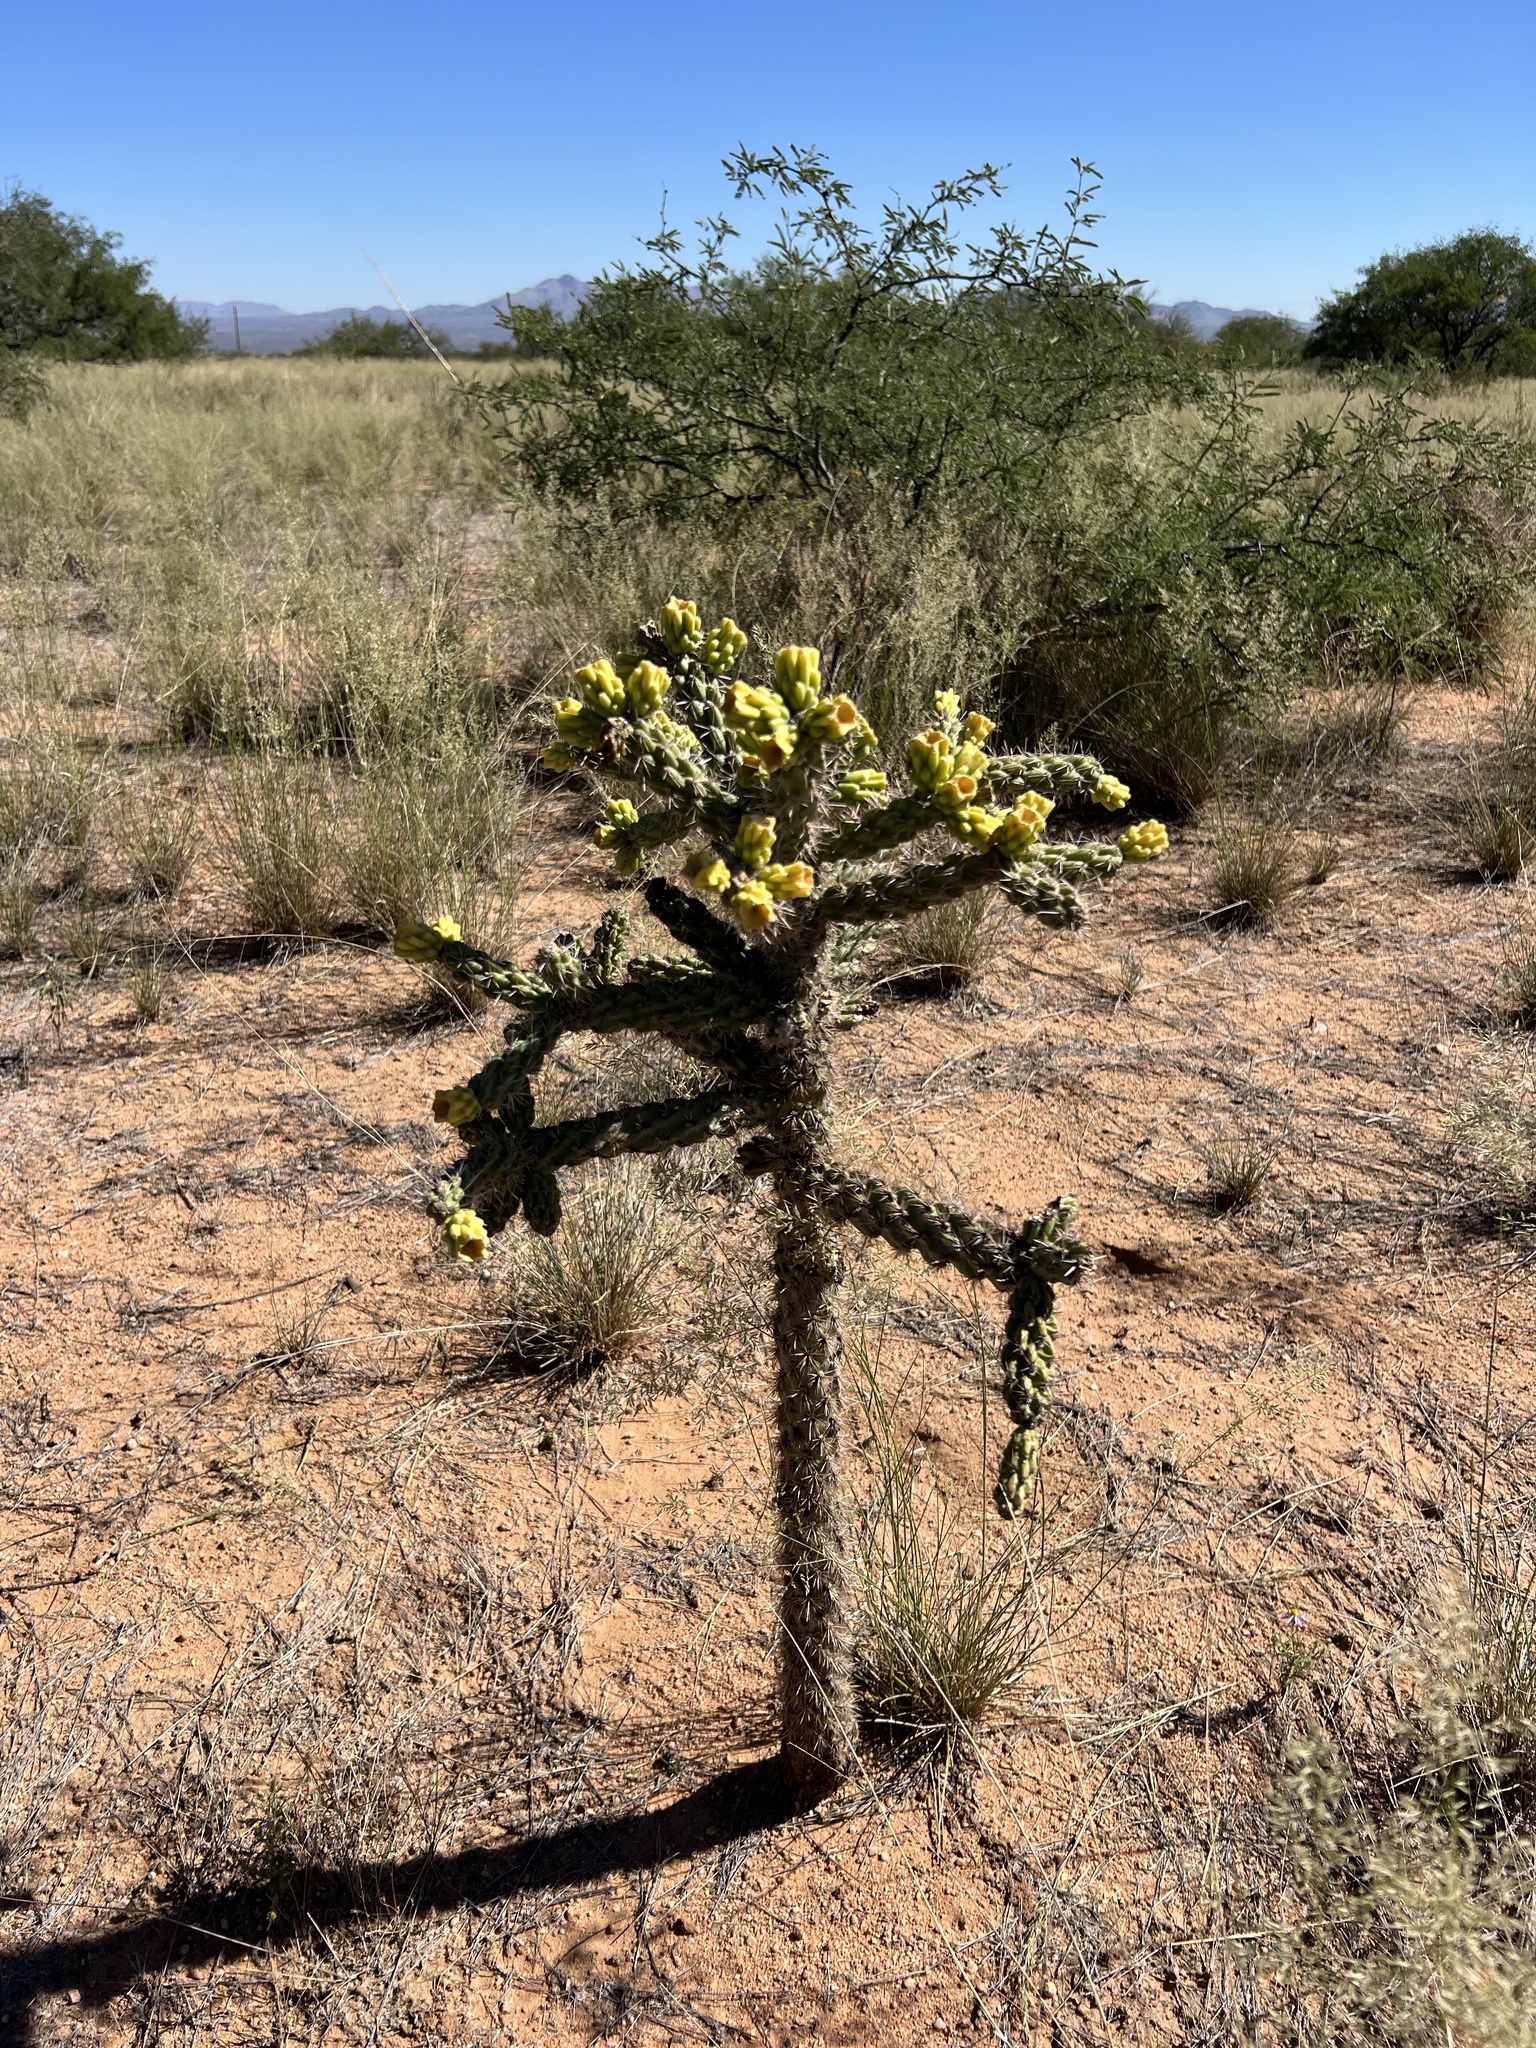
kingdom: Plantae
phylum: Tracheophyta
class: Magnoliopsida
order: Caryophyllales
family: Cactaceae
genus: Cylindropuntia
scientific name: Cylindropuntia imbricata
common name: Candelabrum cactus
